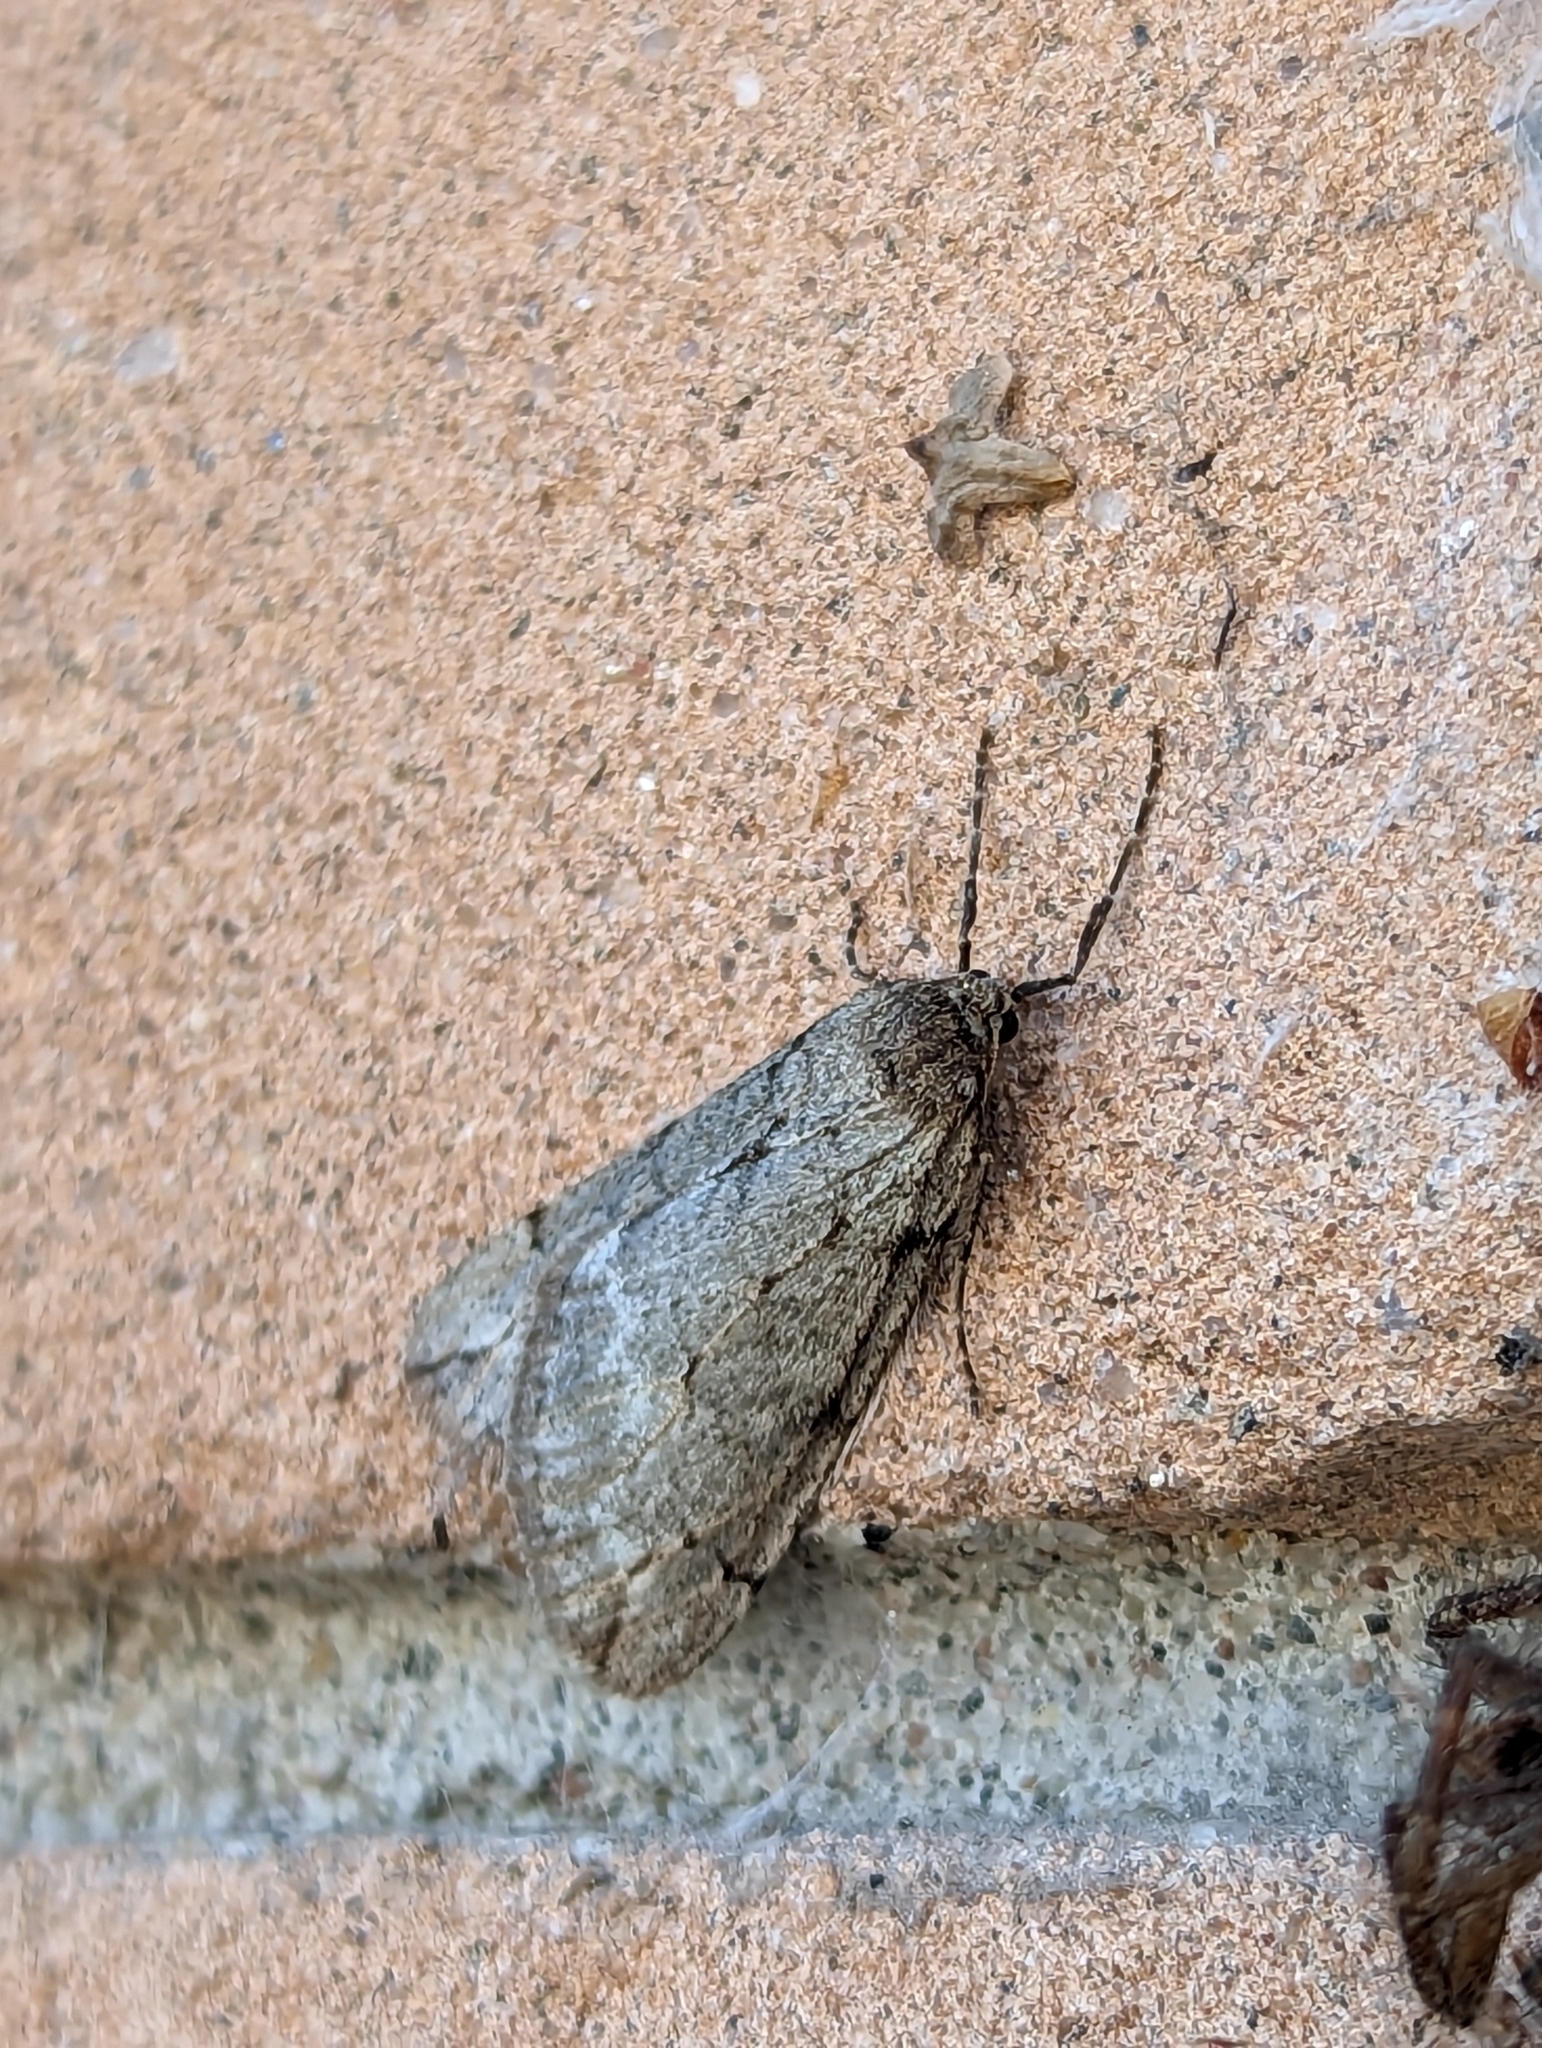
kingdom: Animalia
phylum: Arthropoda
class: Insecta
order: Lepidoptera
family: Geometridae
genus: Paleacrita
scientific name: Paleacrita vernata
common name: Spring cankerworm
